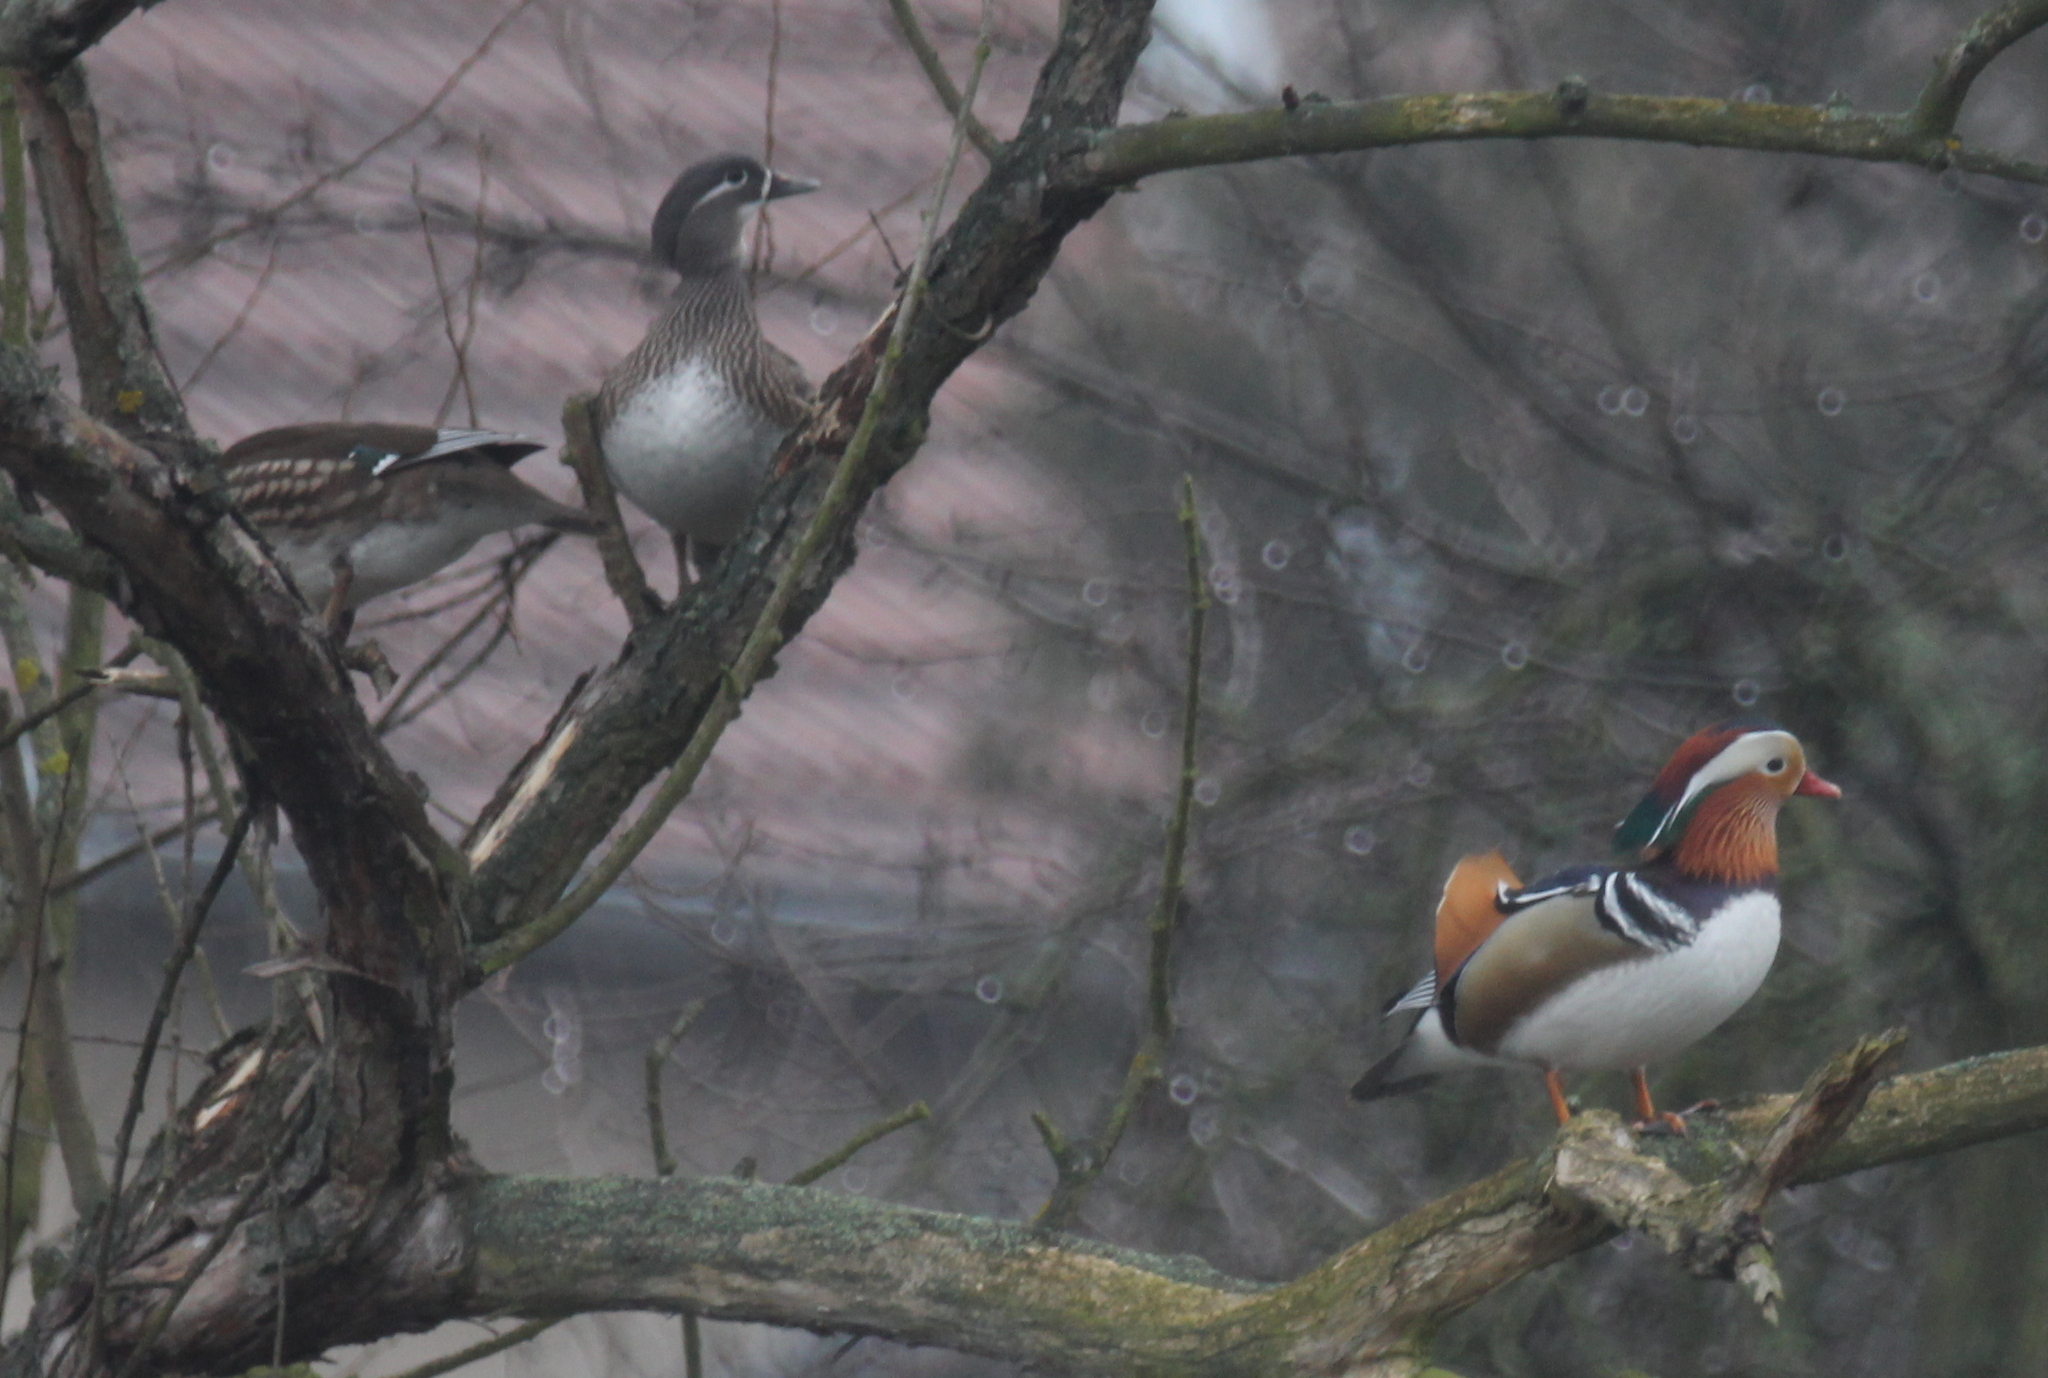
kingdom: Animalia
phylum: Chordata
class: Aves
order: Anseriformes
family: Anatidae
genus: Aix
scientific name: Aix galericulata
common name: Mandarin duck
